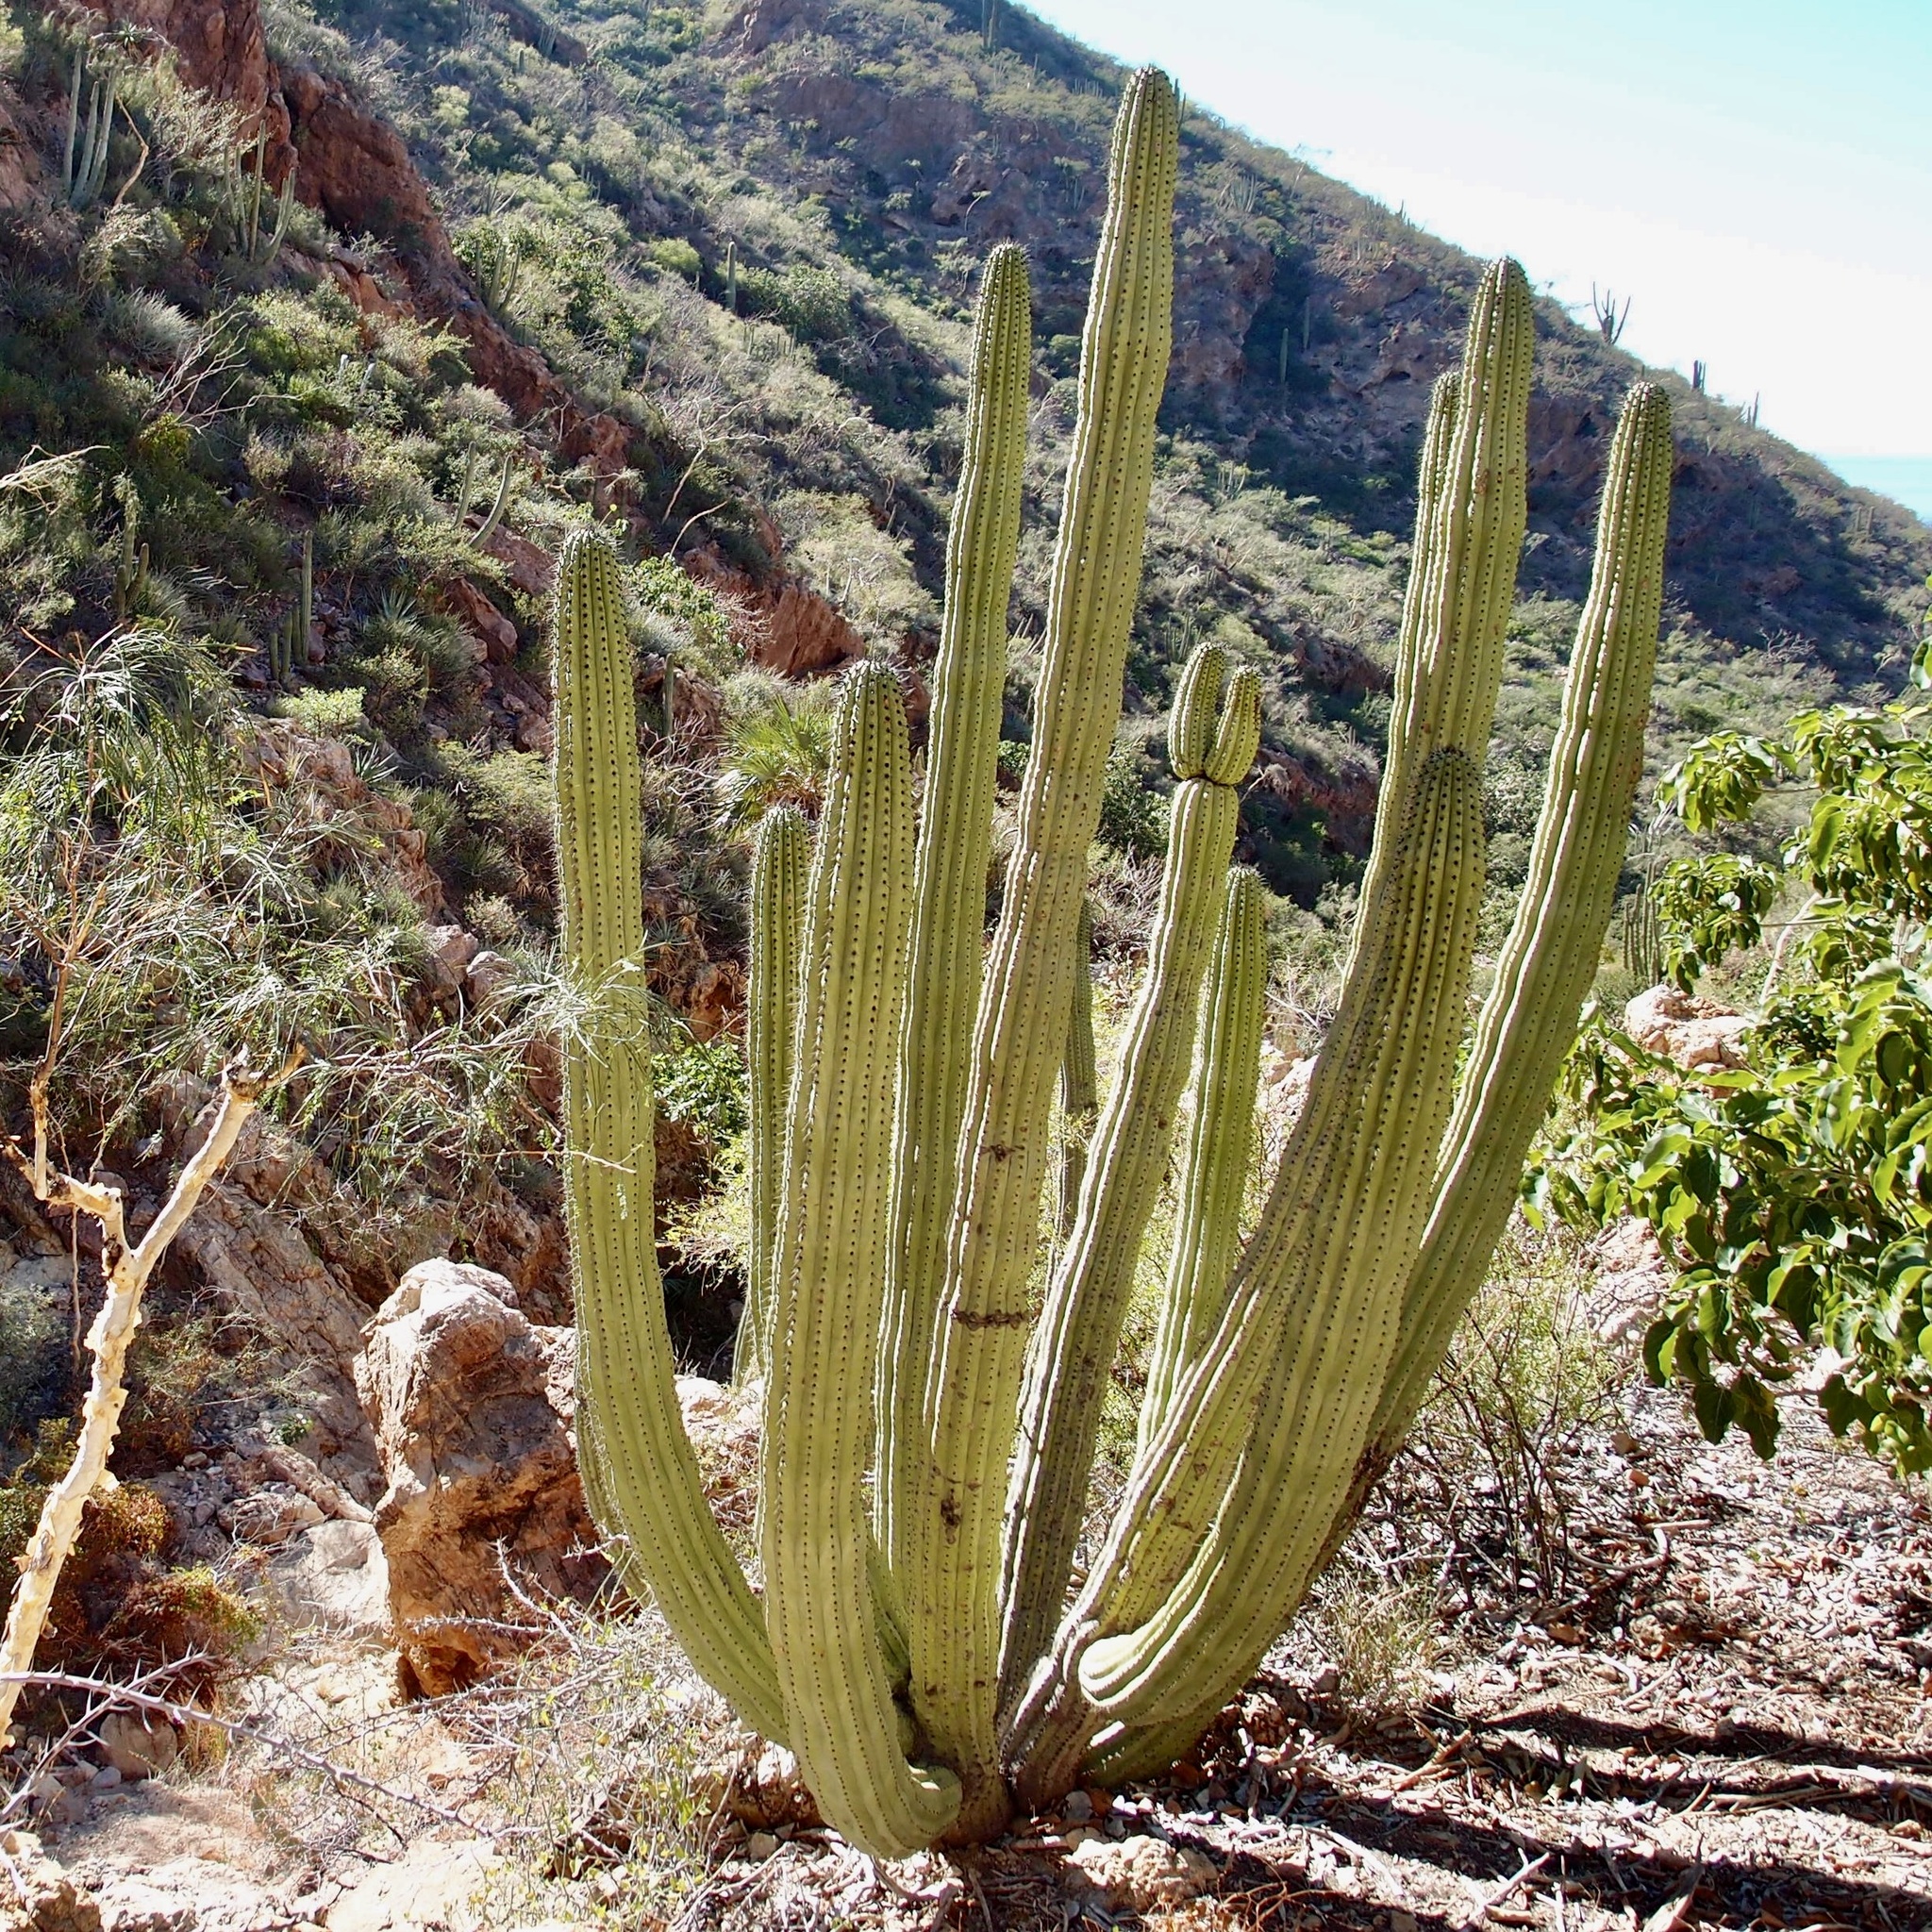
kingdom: Plantae
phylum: Tracheophyta
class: Magnoliopsida
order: Caryophyllales
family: Cactaceae
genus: Stenocereus
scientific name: Stenocereus thurberi
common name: Organ pipe cactus
